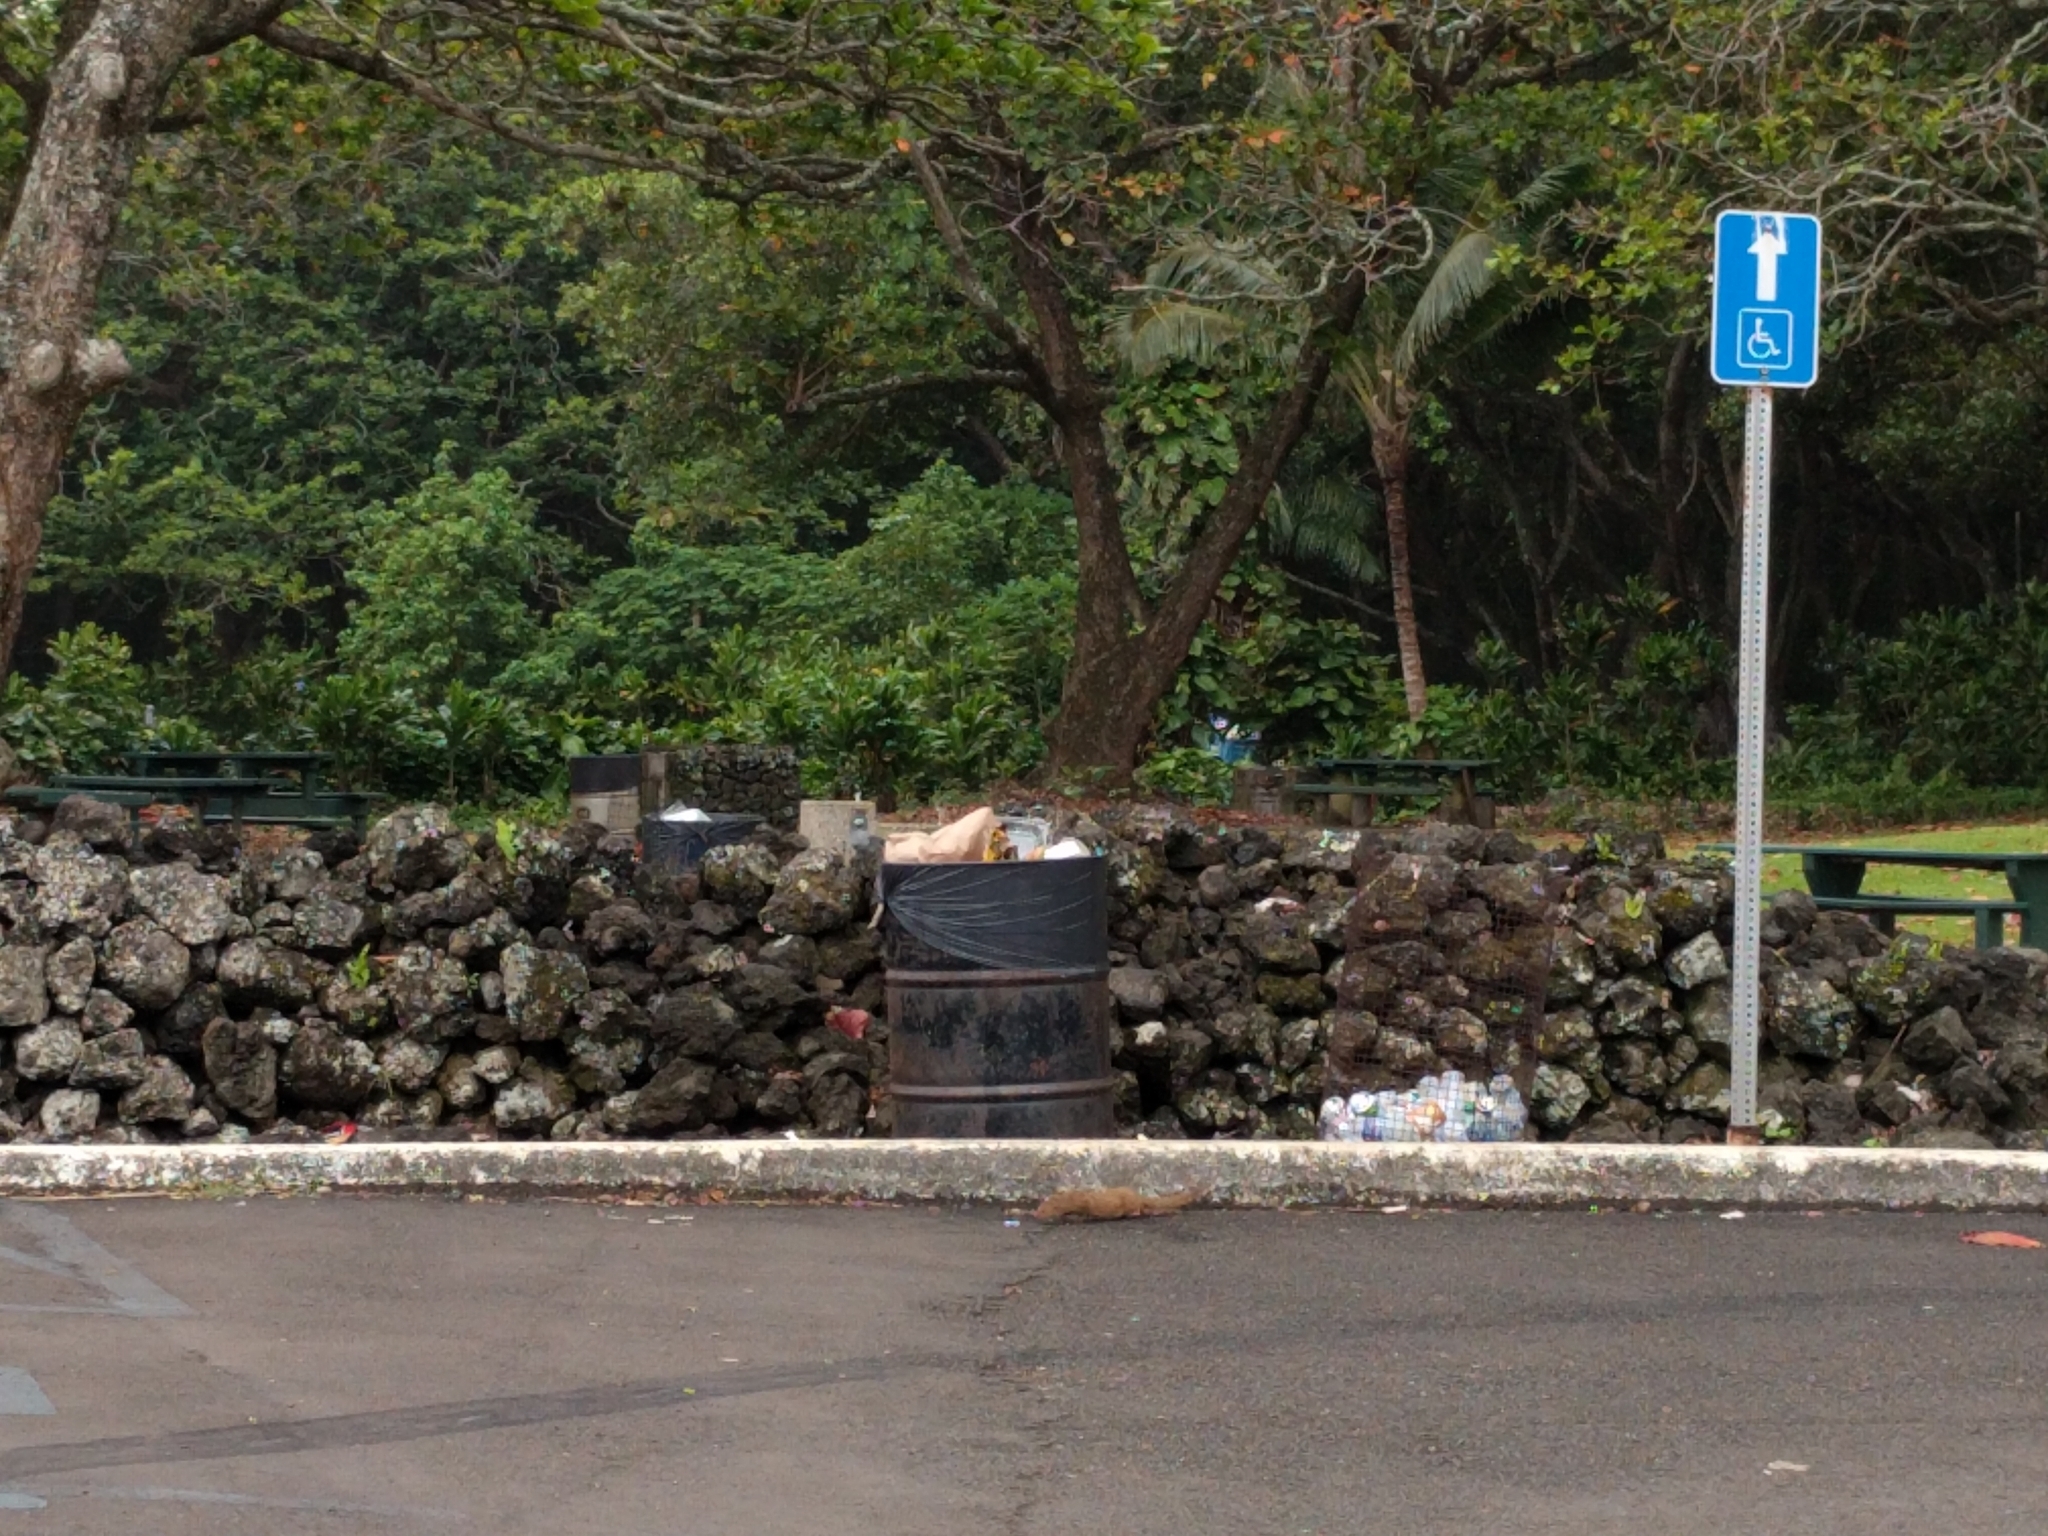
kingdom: Animalia
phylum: Chordata
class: Mammalia
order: Carnivora
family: Herpestidae
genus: Herpestes
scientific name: Herpestes javanicus
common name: Small asian mongoose
